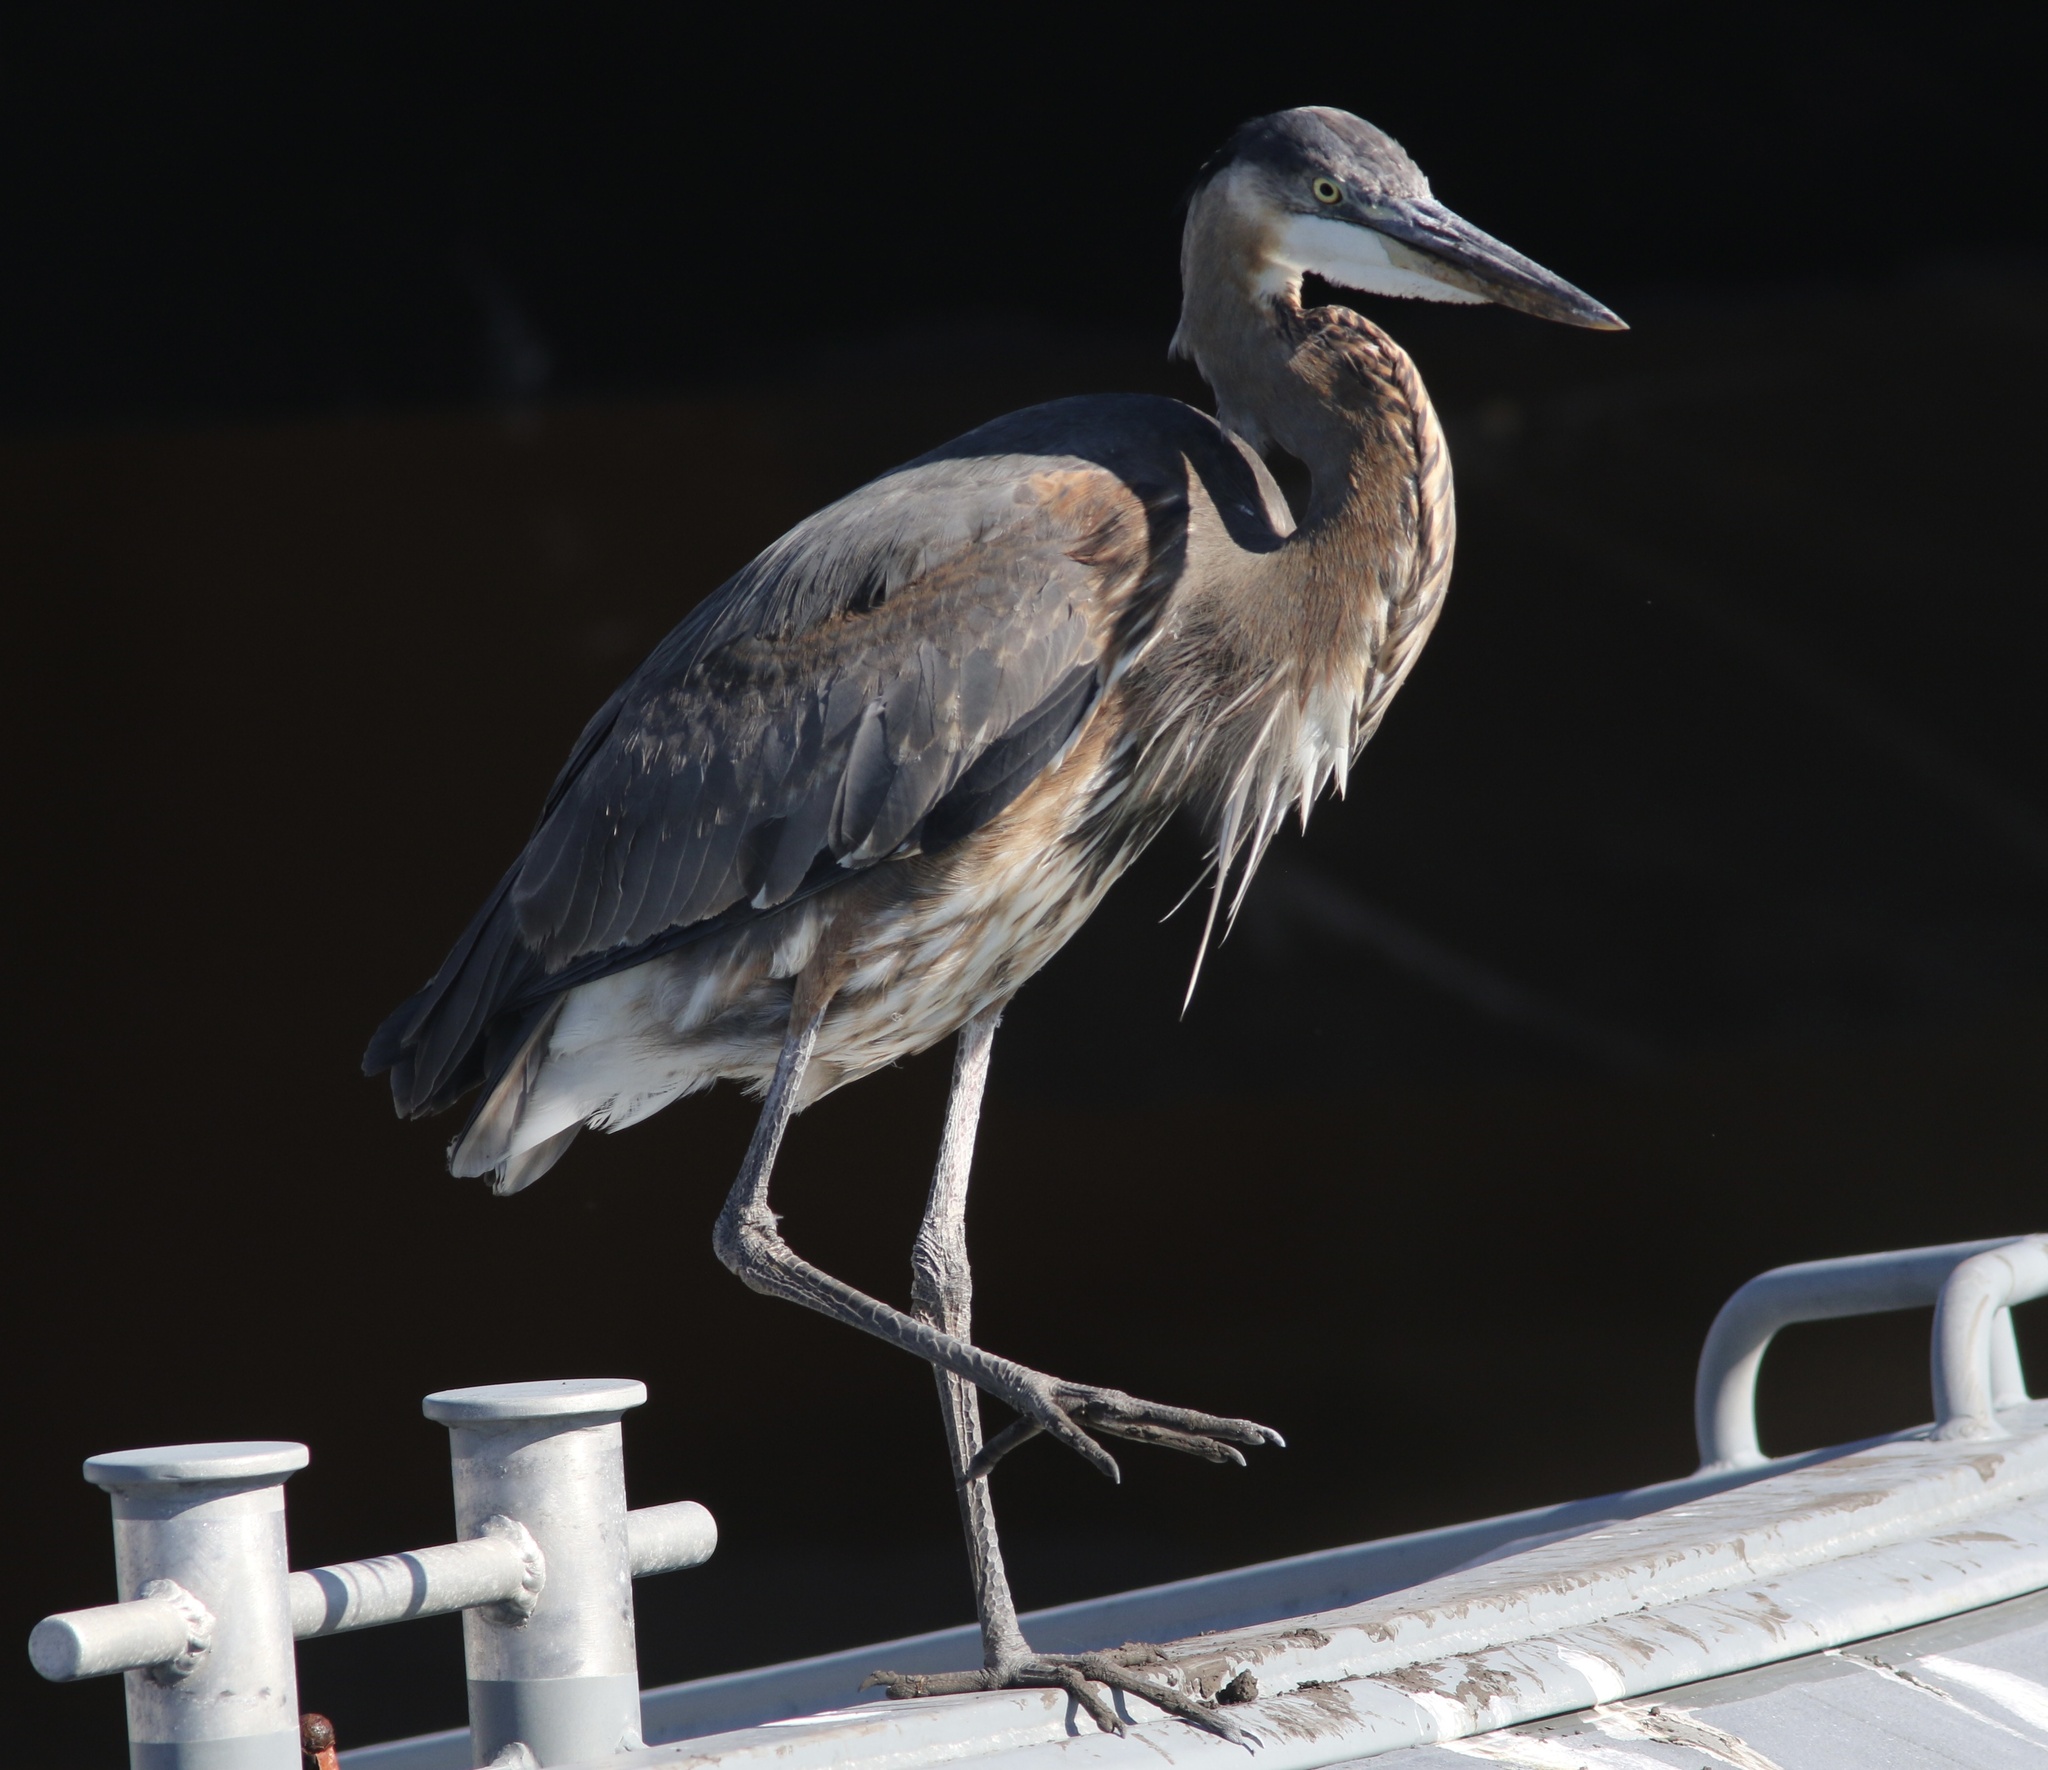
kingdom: Animalia
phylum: Chordata
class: Aves
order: Pelecaniformes
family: Ardeidae
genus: Ardea
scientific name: Ardea herodias
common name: Great blue heron
